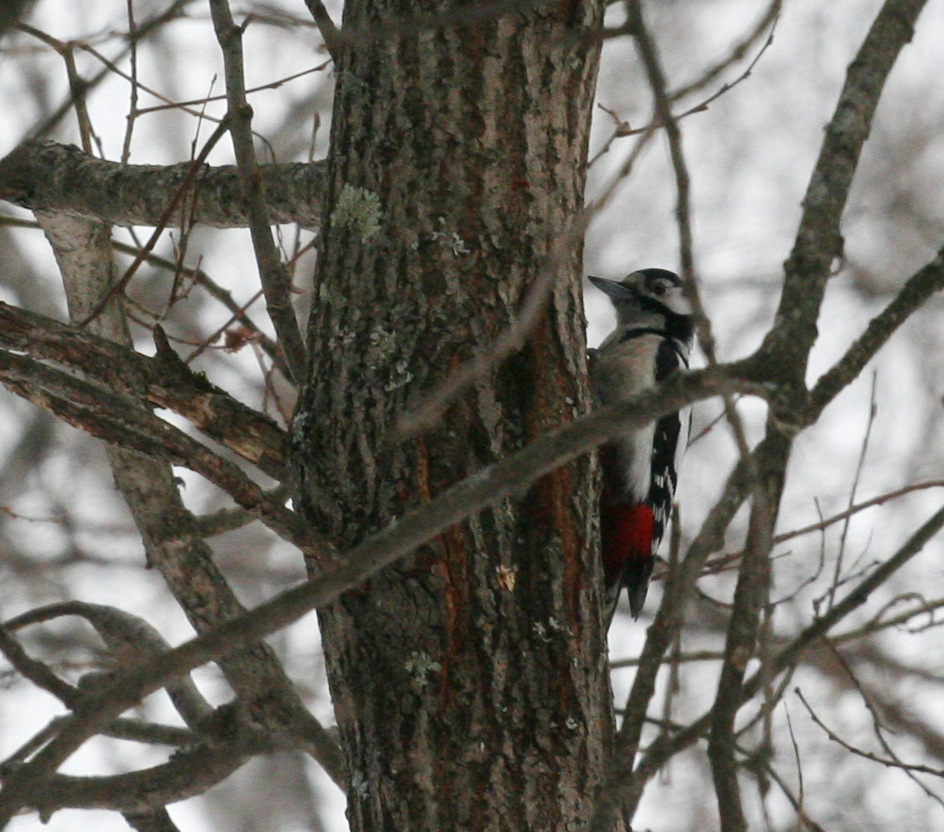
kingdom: Animalia
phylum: Chordata
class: Aves
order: Piciformes
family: Picidae
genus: Dendrocopos
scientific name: Dendrocopos major
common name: Great spotted woodpecker
